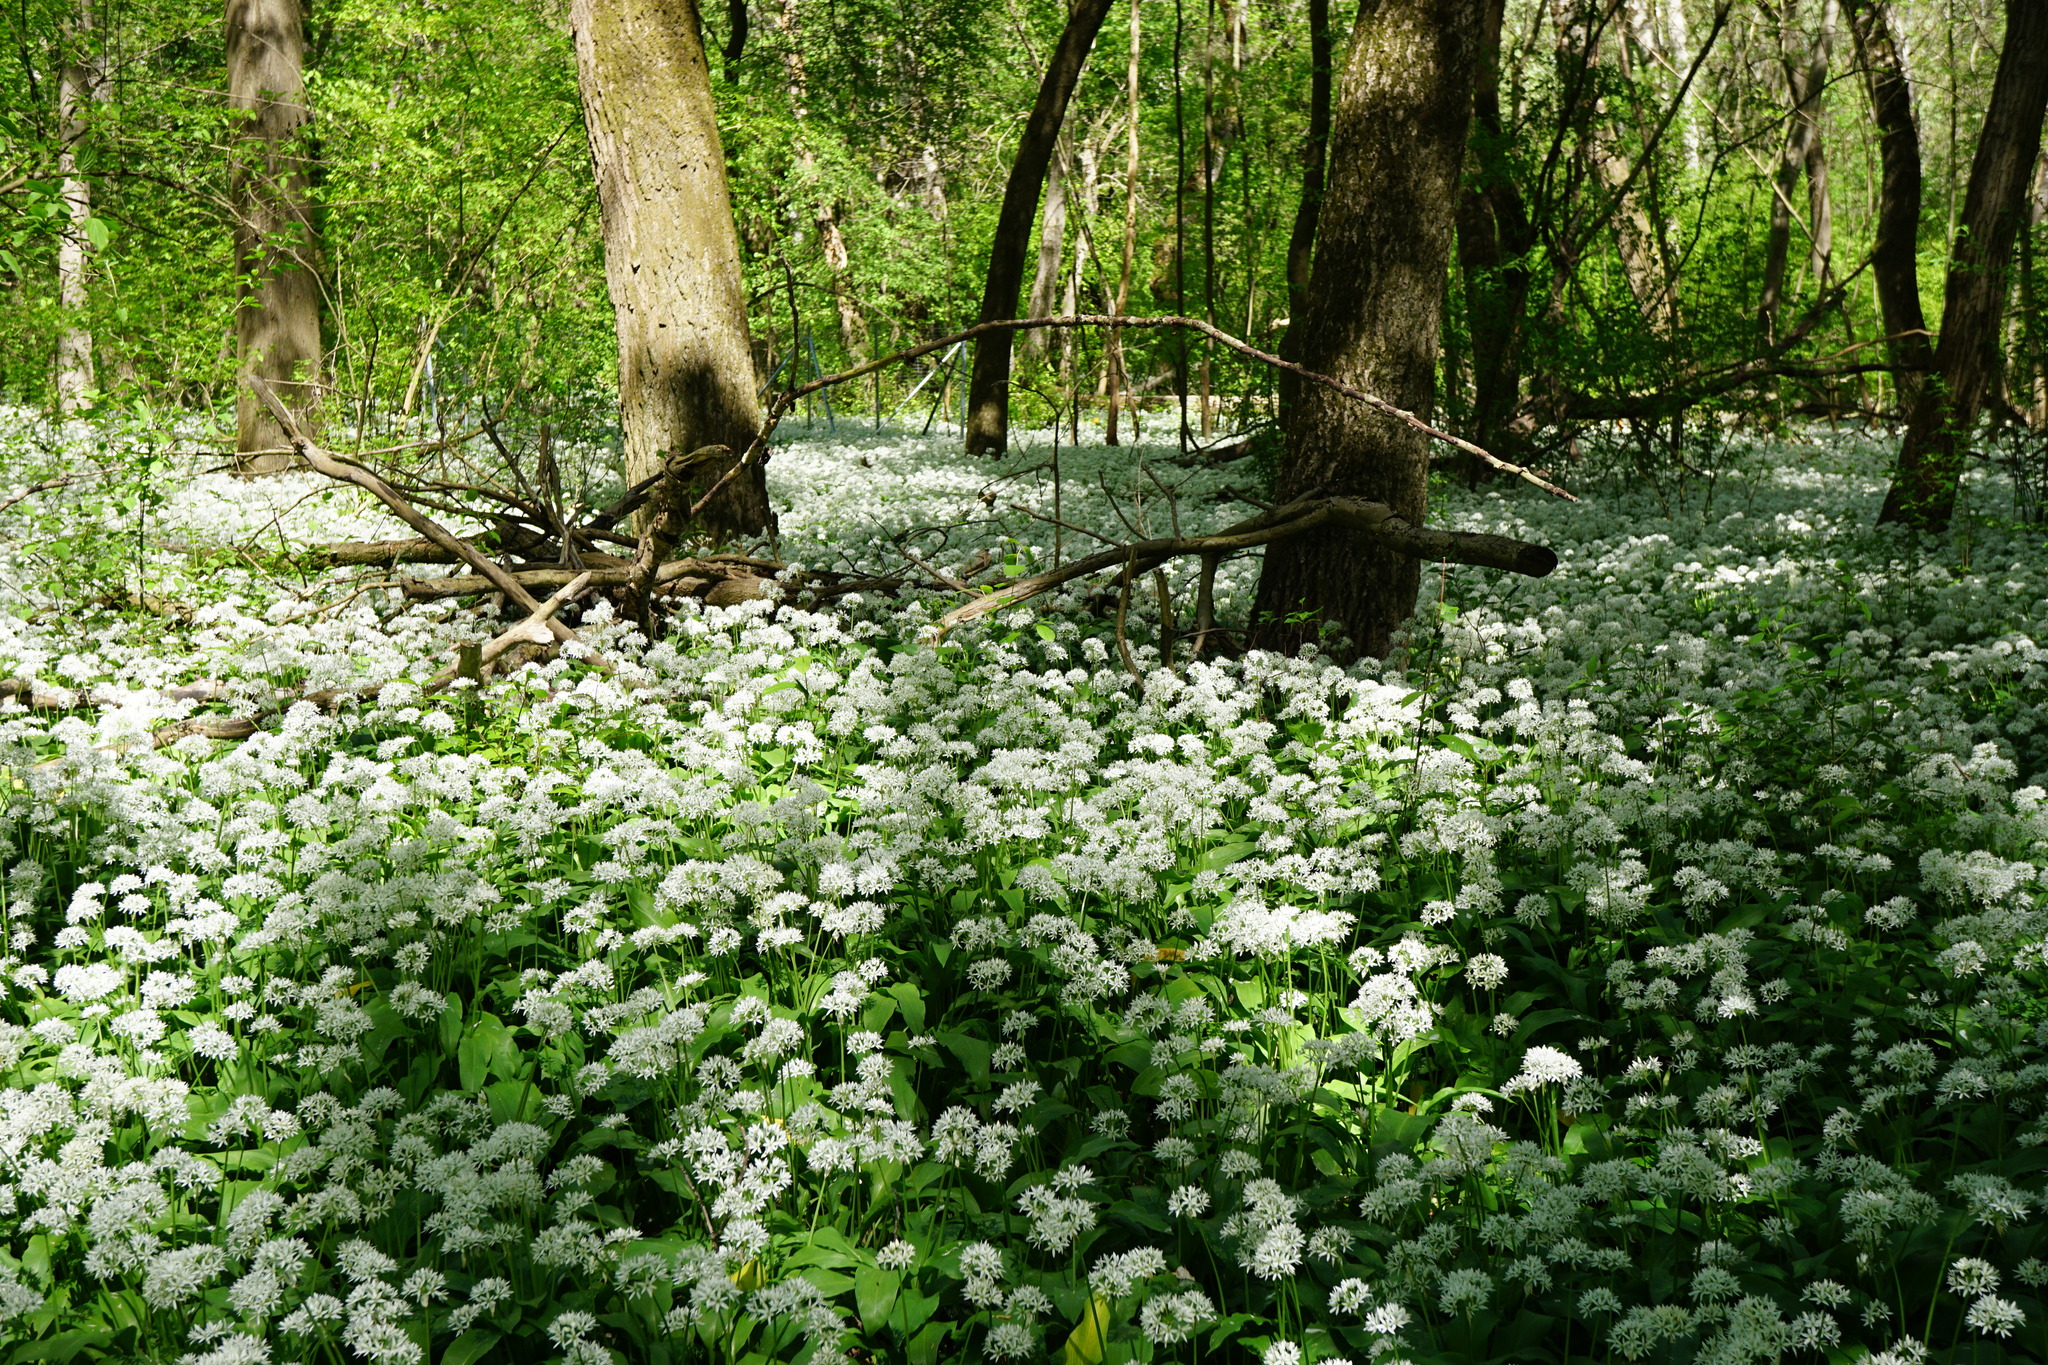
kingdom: Plantae
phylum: Tracheophyta
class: Liliopsida
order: Asparagales
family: Amaryllidaceae
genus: Allium
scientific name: Allium ursinum
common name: Ramsons
